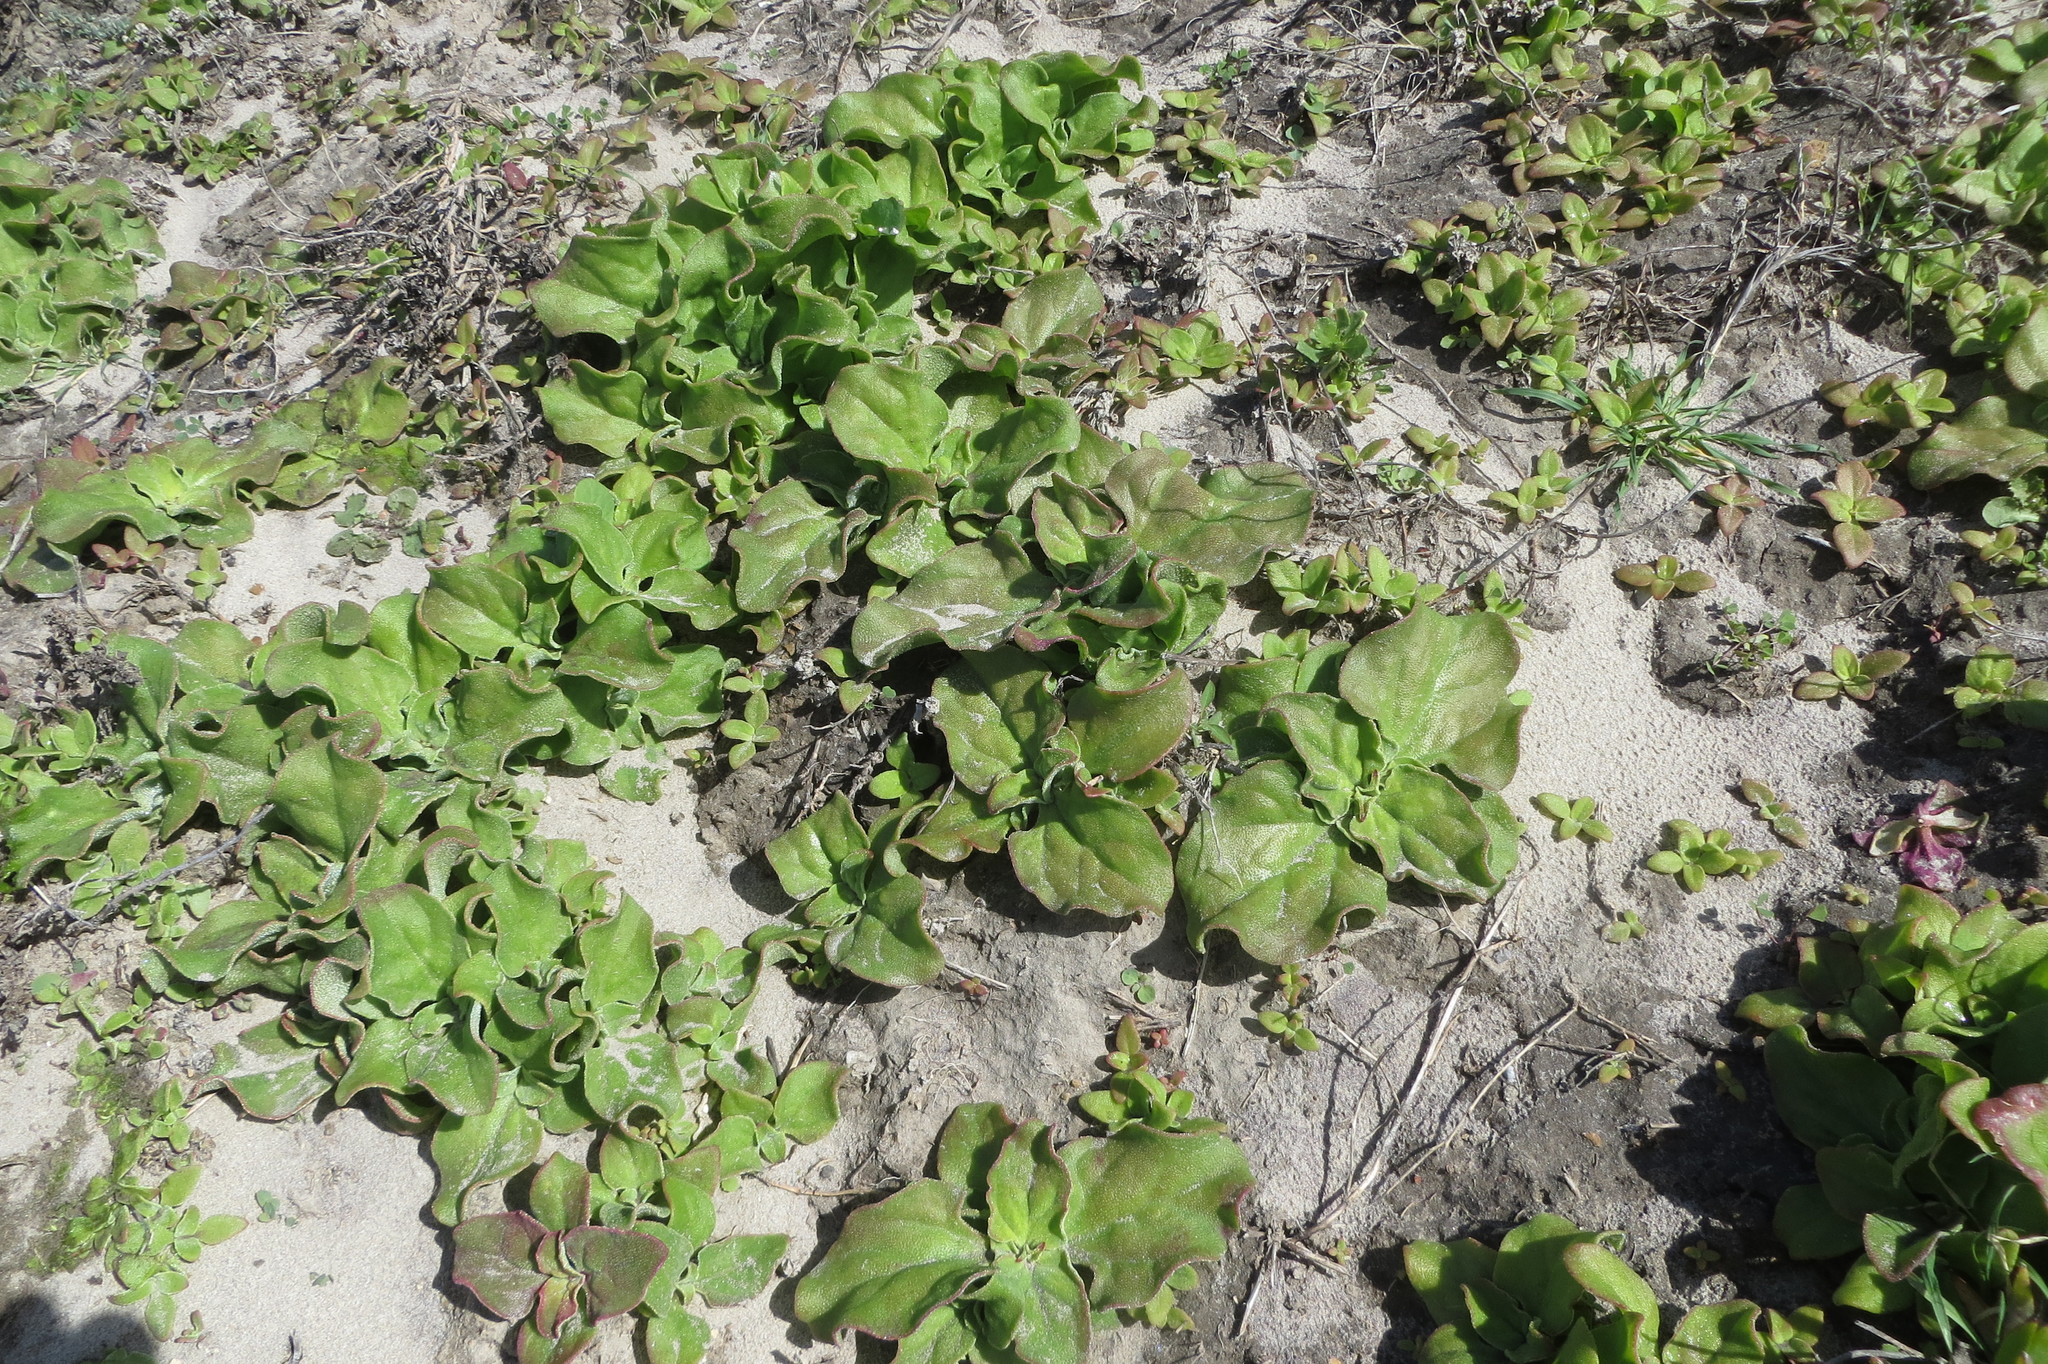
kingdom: Plantae
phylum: Tracheophyta
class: Magnoliopsida
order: Caryophyllales
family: Aizoaceae
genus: Mesembryanthemum
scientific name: Mesembryanthemum crystallinum
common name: Common iceplant
